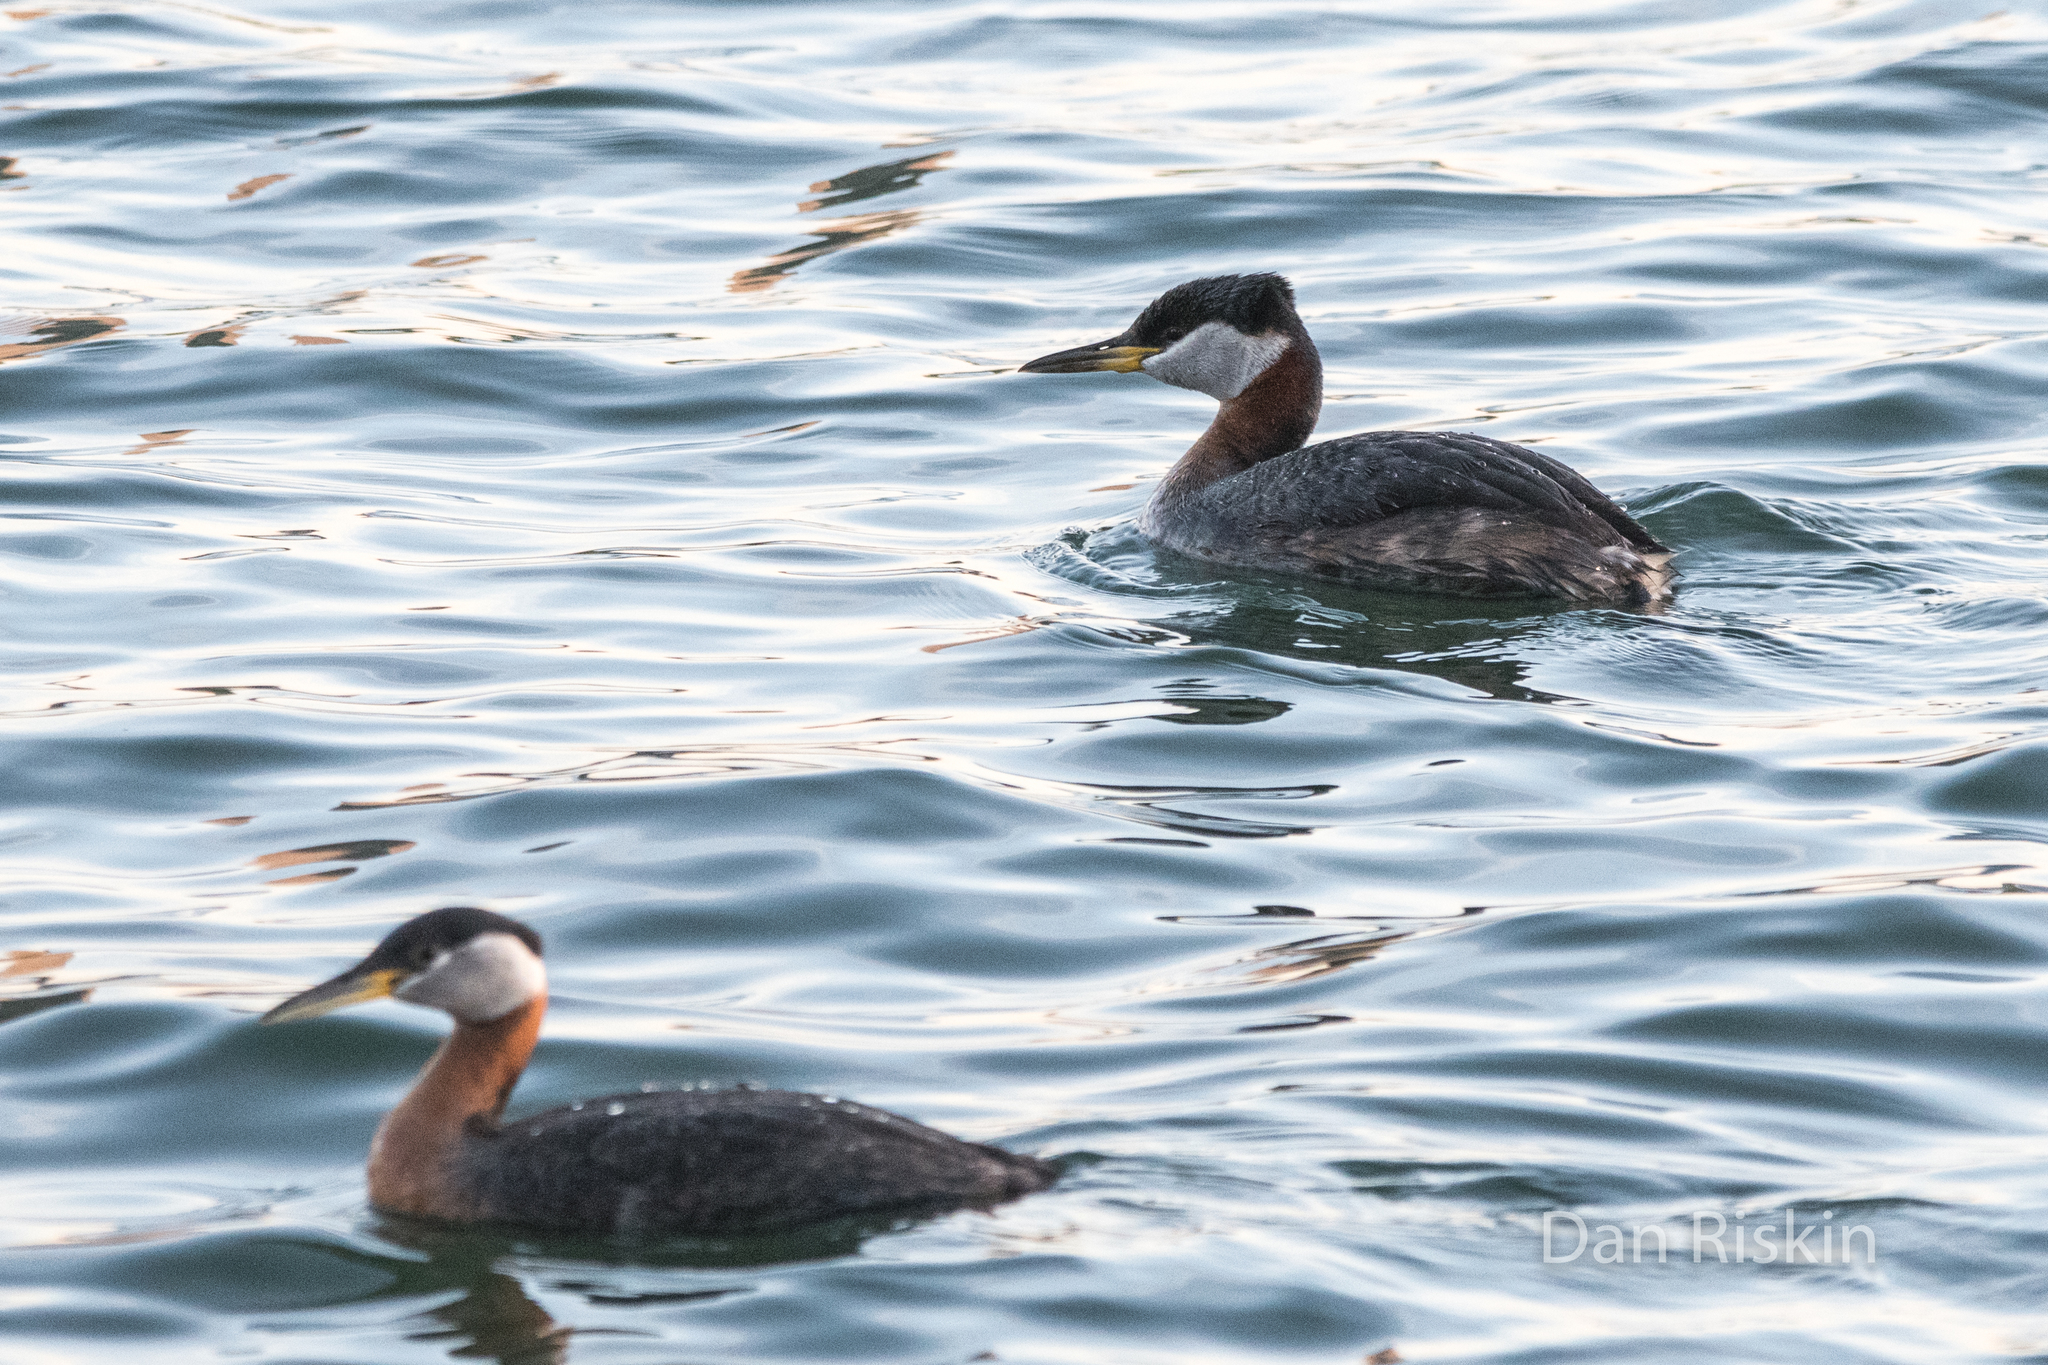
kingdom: Animalia
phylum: Chordata
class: Aves
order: Podicipediformes
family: Podicipedidae
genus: Podiceps
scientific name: Podiceps grisegena
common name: Red-necked grebe
